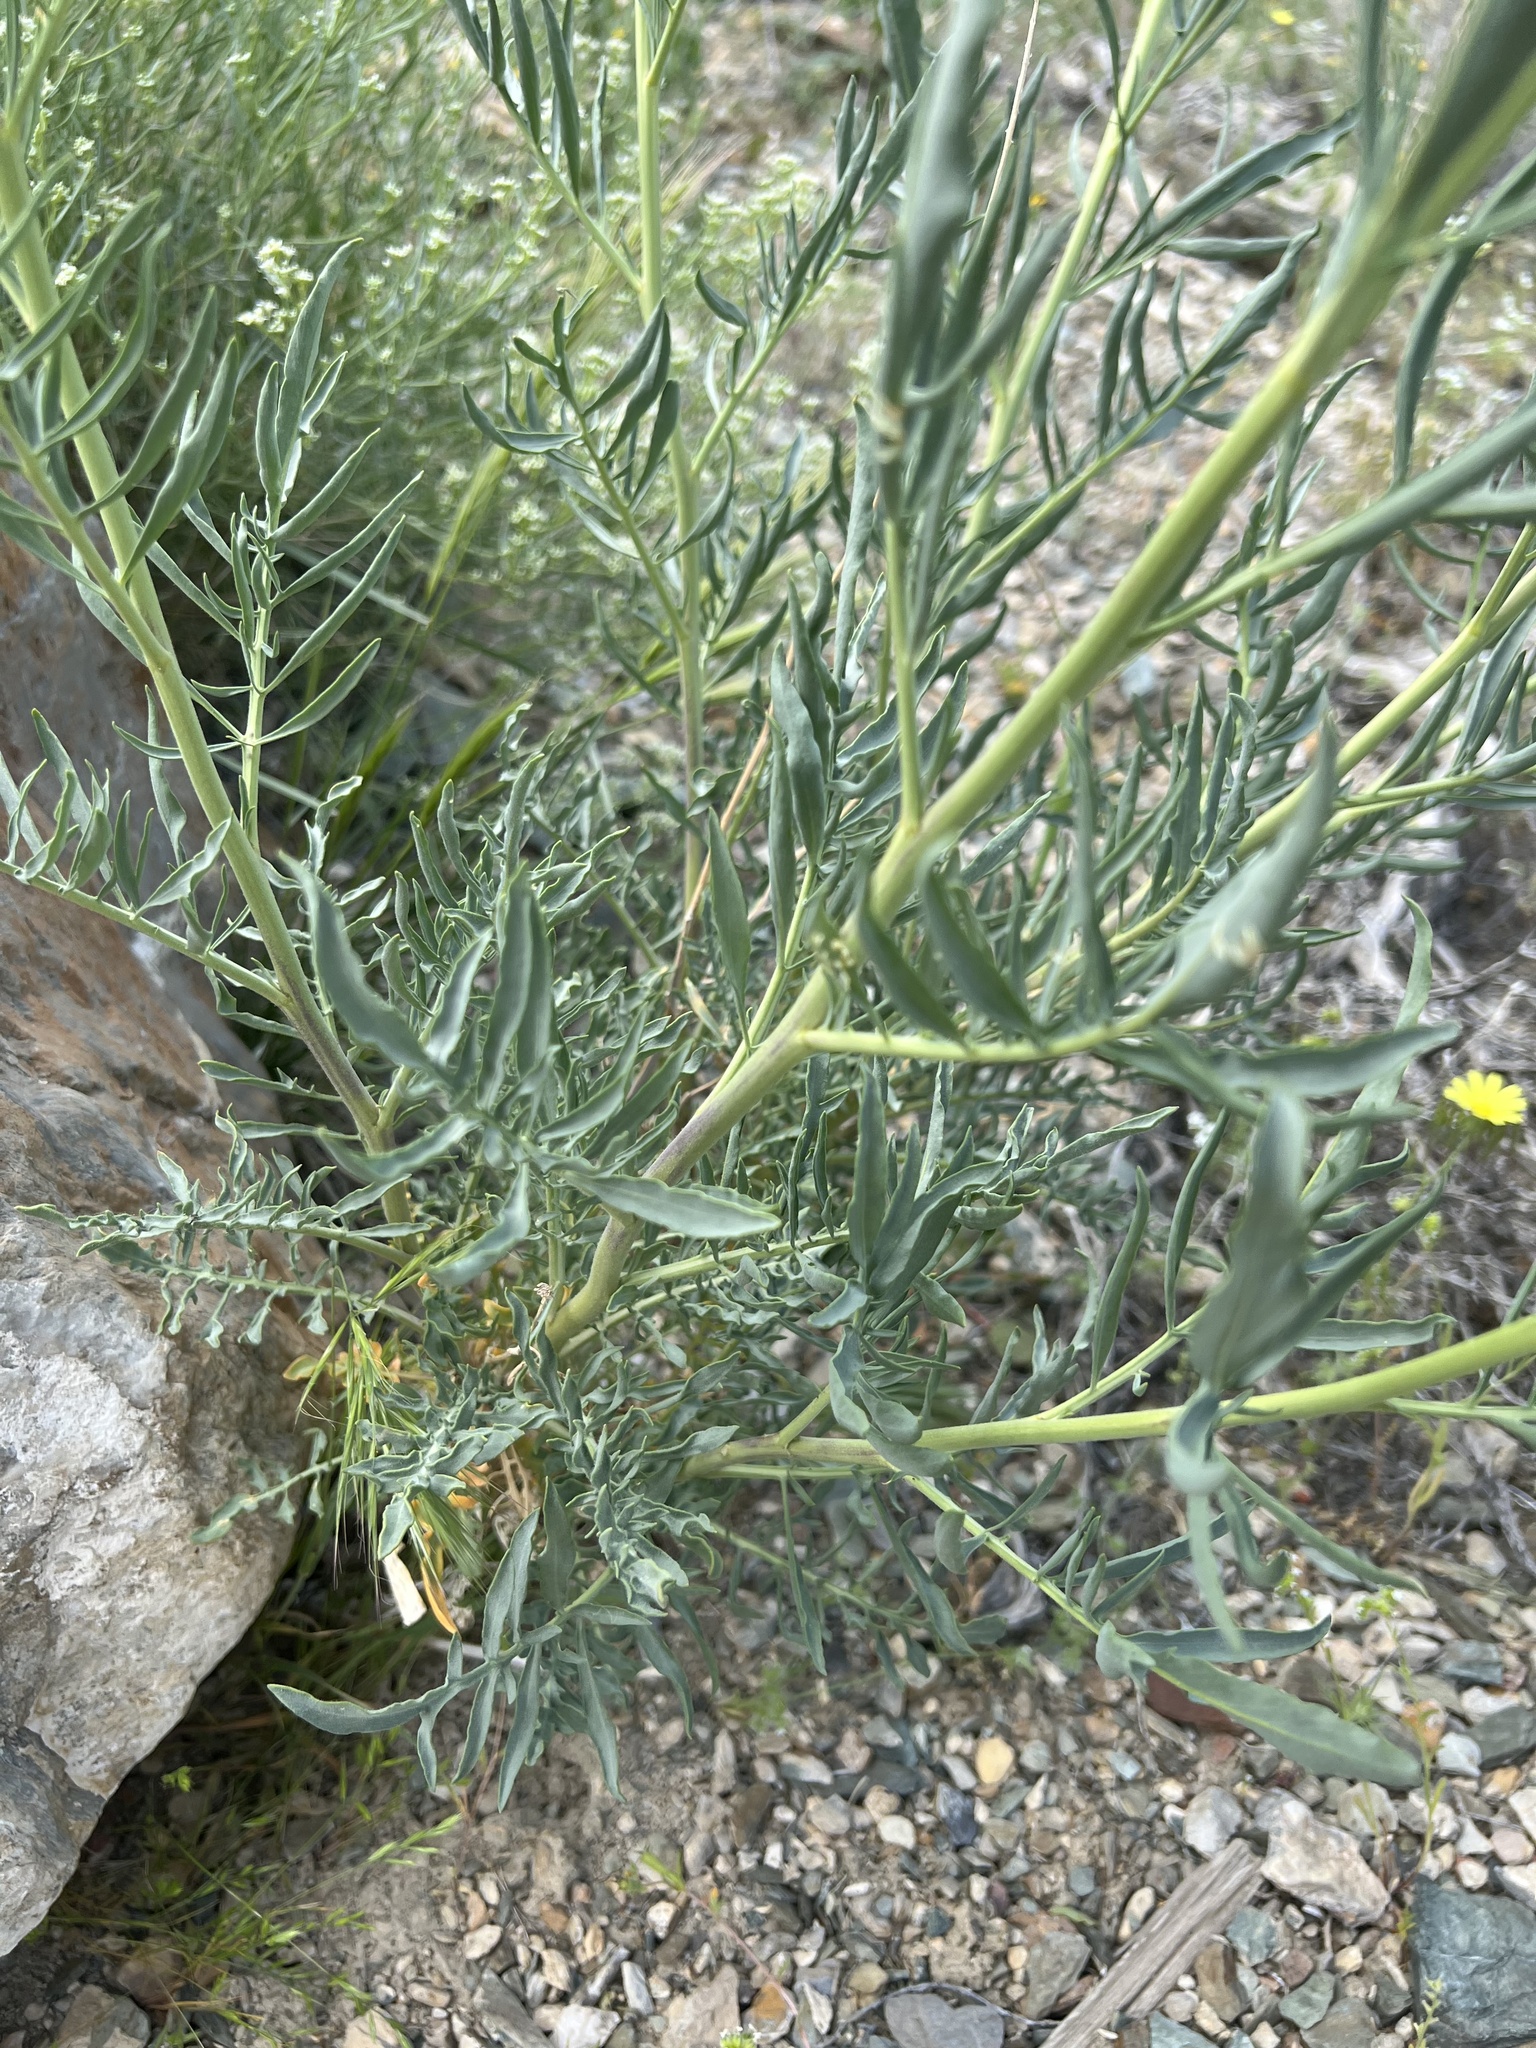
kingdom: Plantae
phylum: Tracheophyta
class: Magnoliopsida
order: Brassicales
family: Brassicaceae
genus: Stanleya
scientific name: Stanleya pinnata
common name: Prince's-plume
